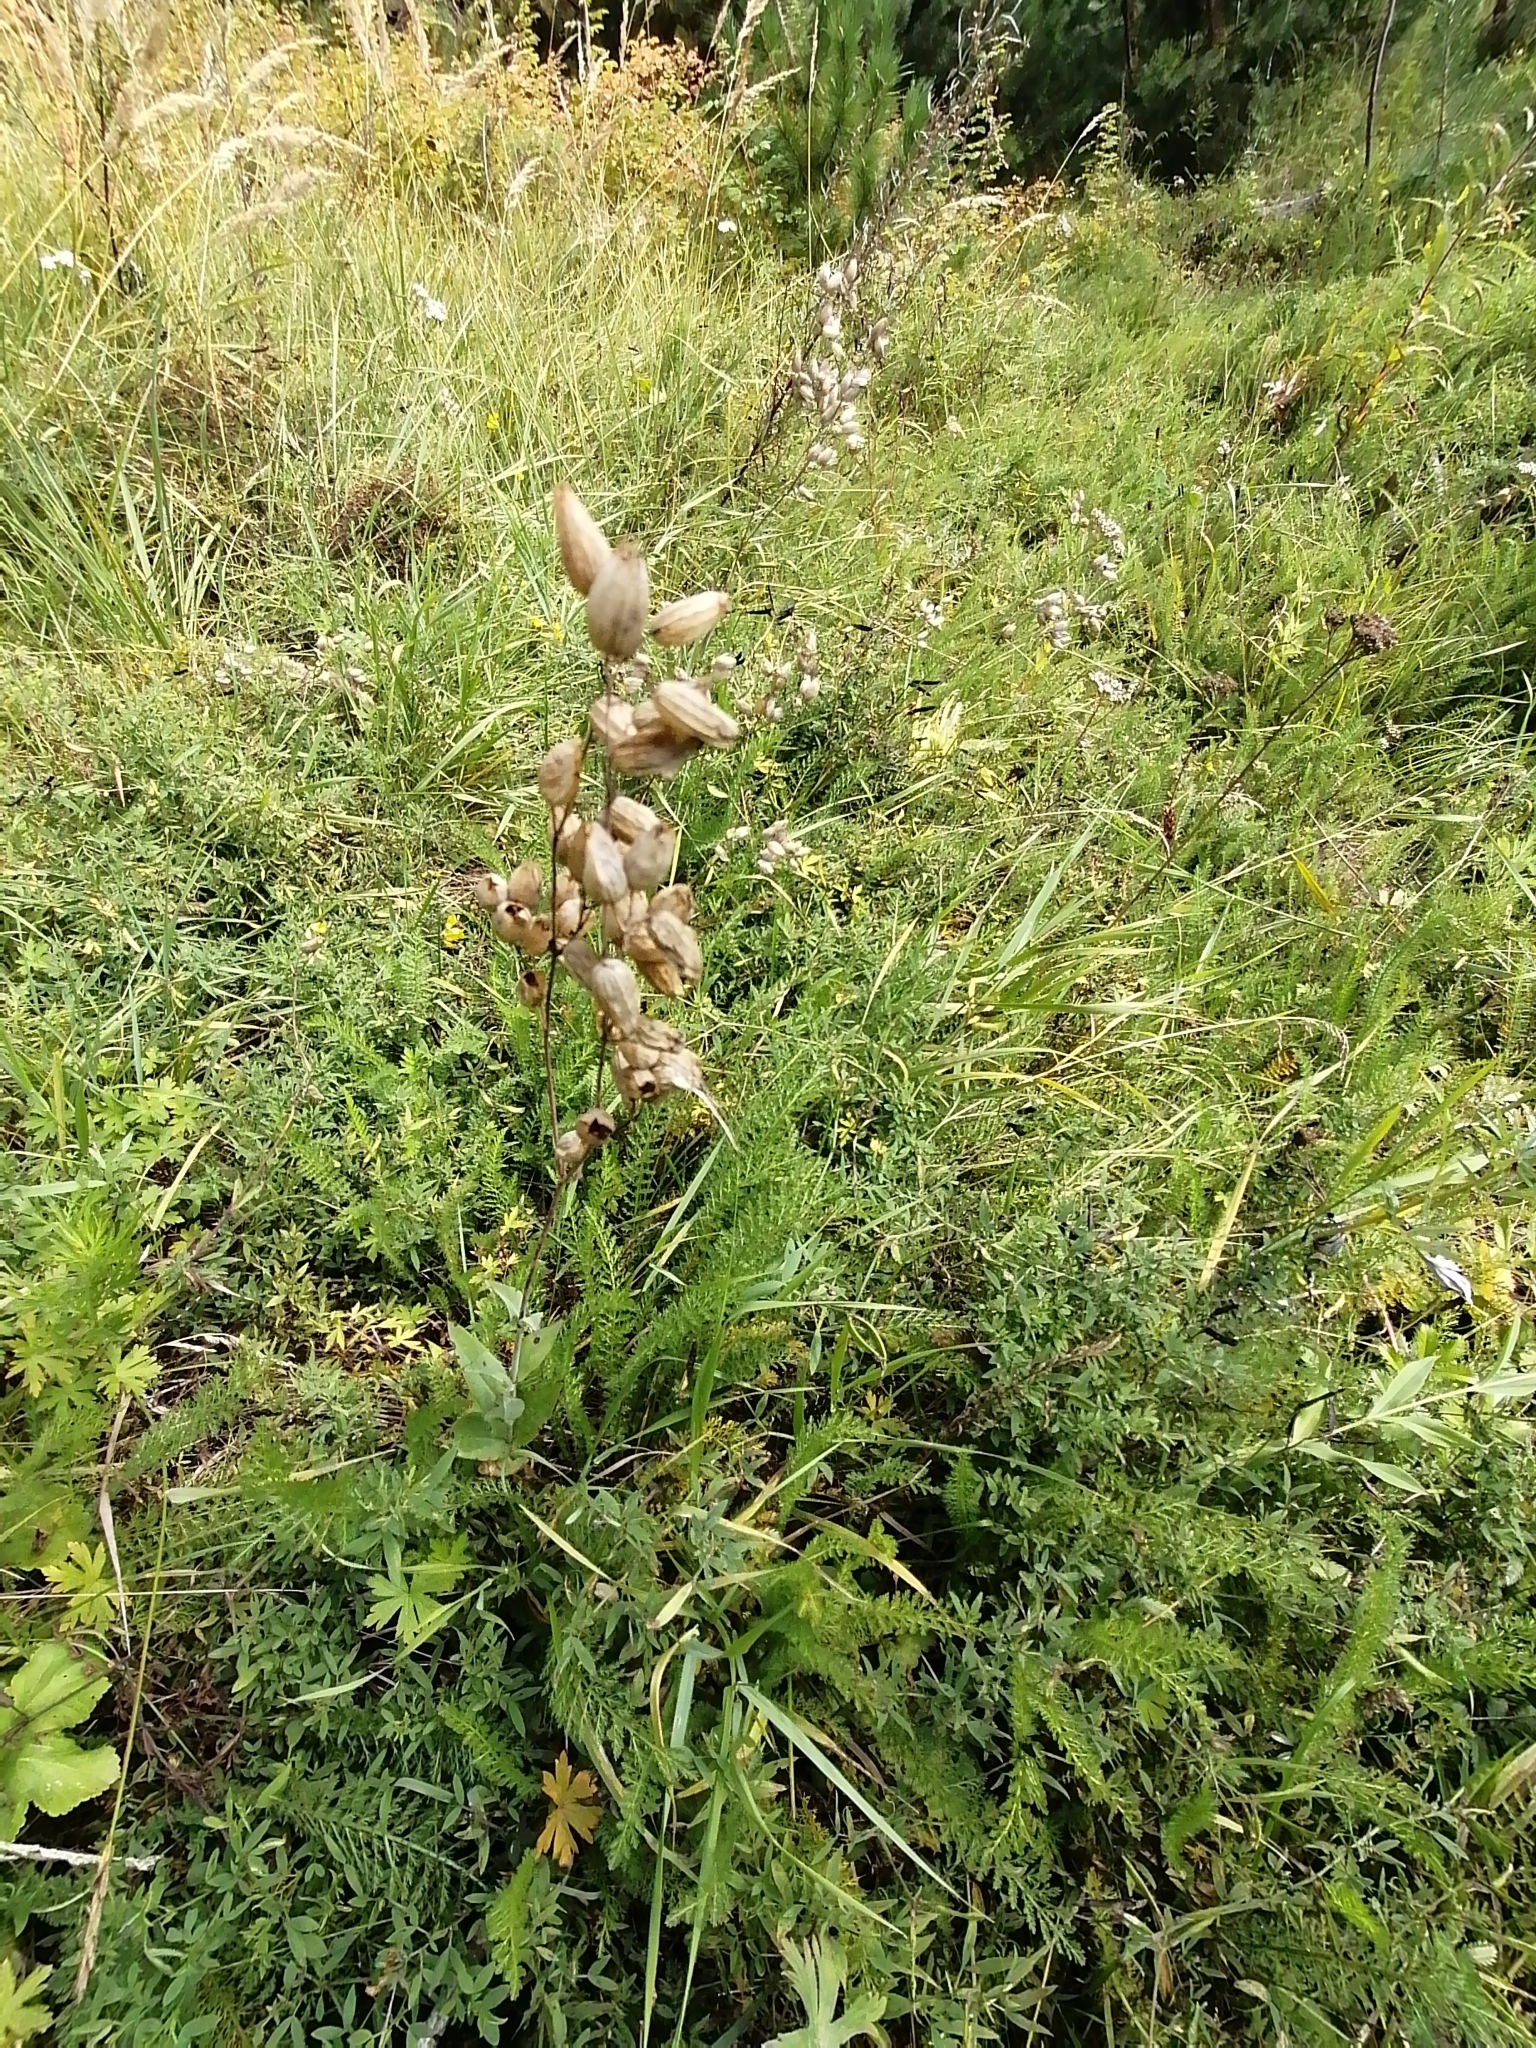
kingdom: Plantae
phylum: Tracheophyta
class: Magnoliopsida
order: Caryophyllales
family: Caryophyllaceae
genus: Silene
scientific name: Silene vulgaris
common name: Bladder campion
